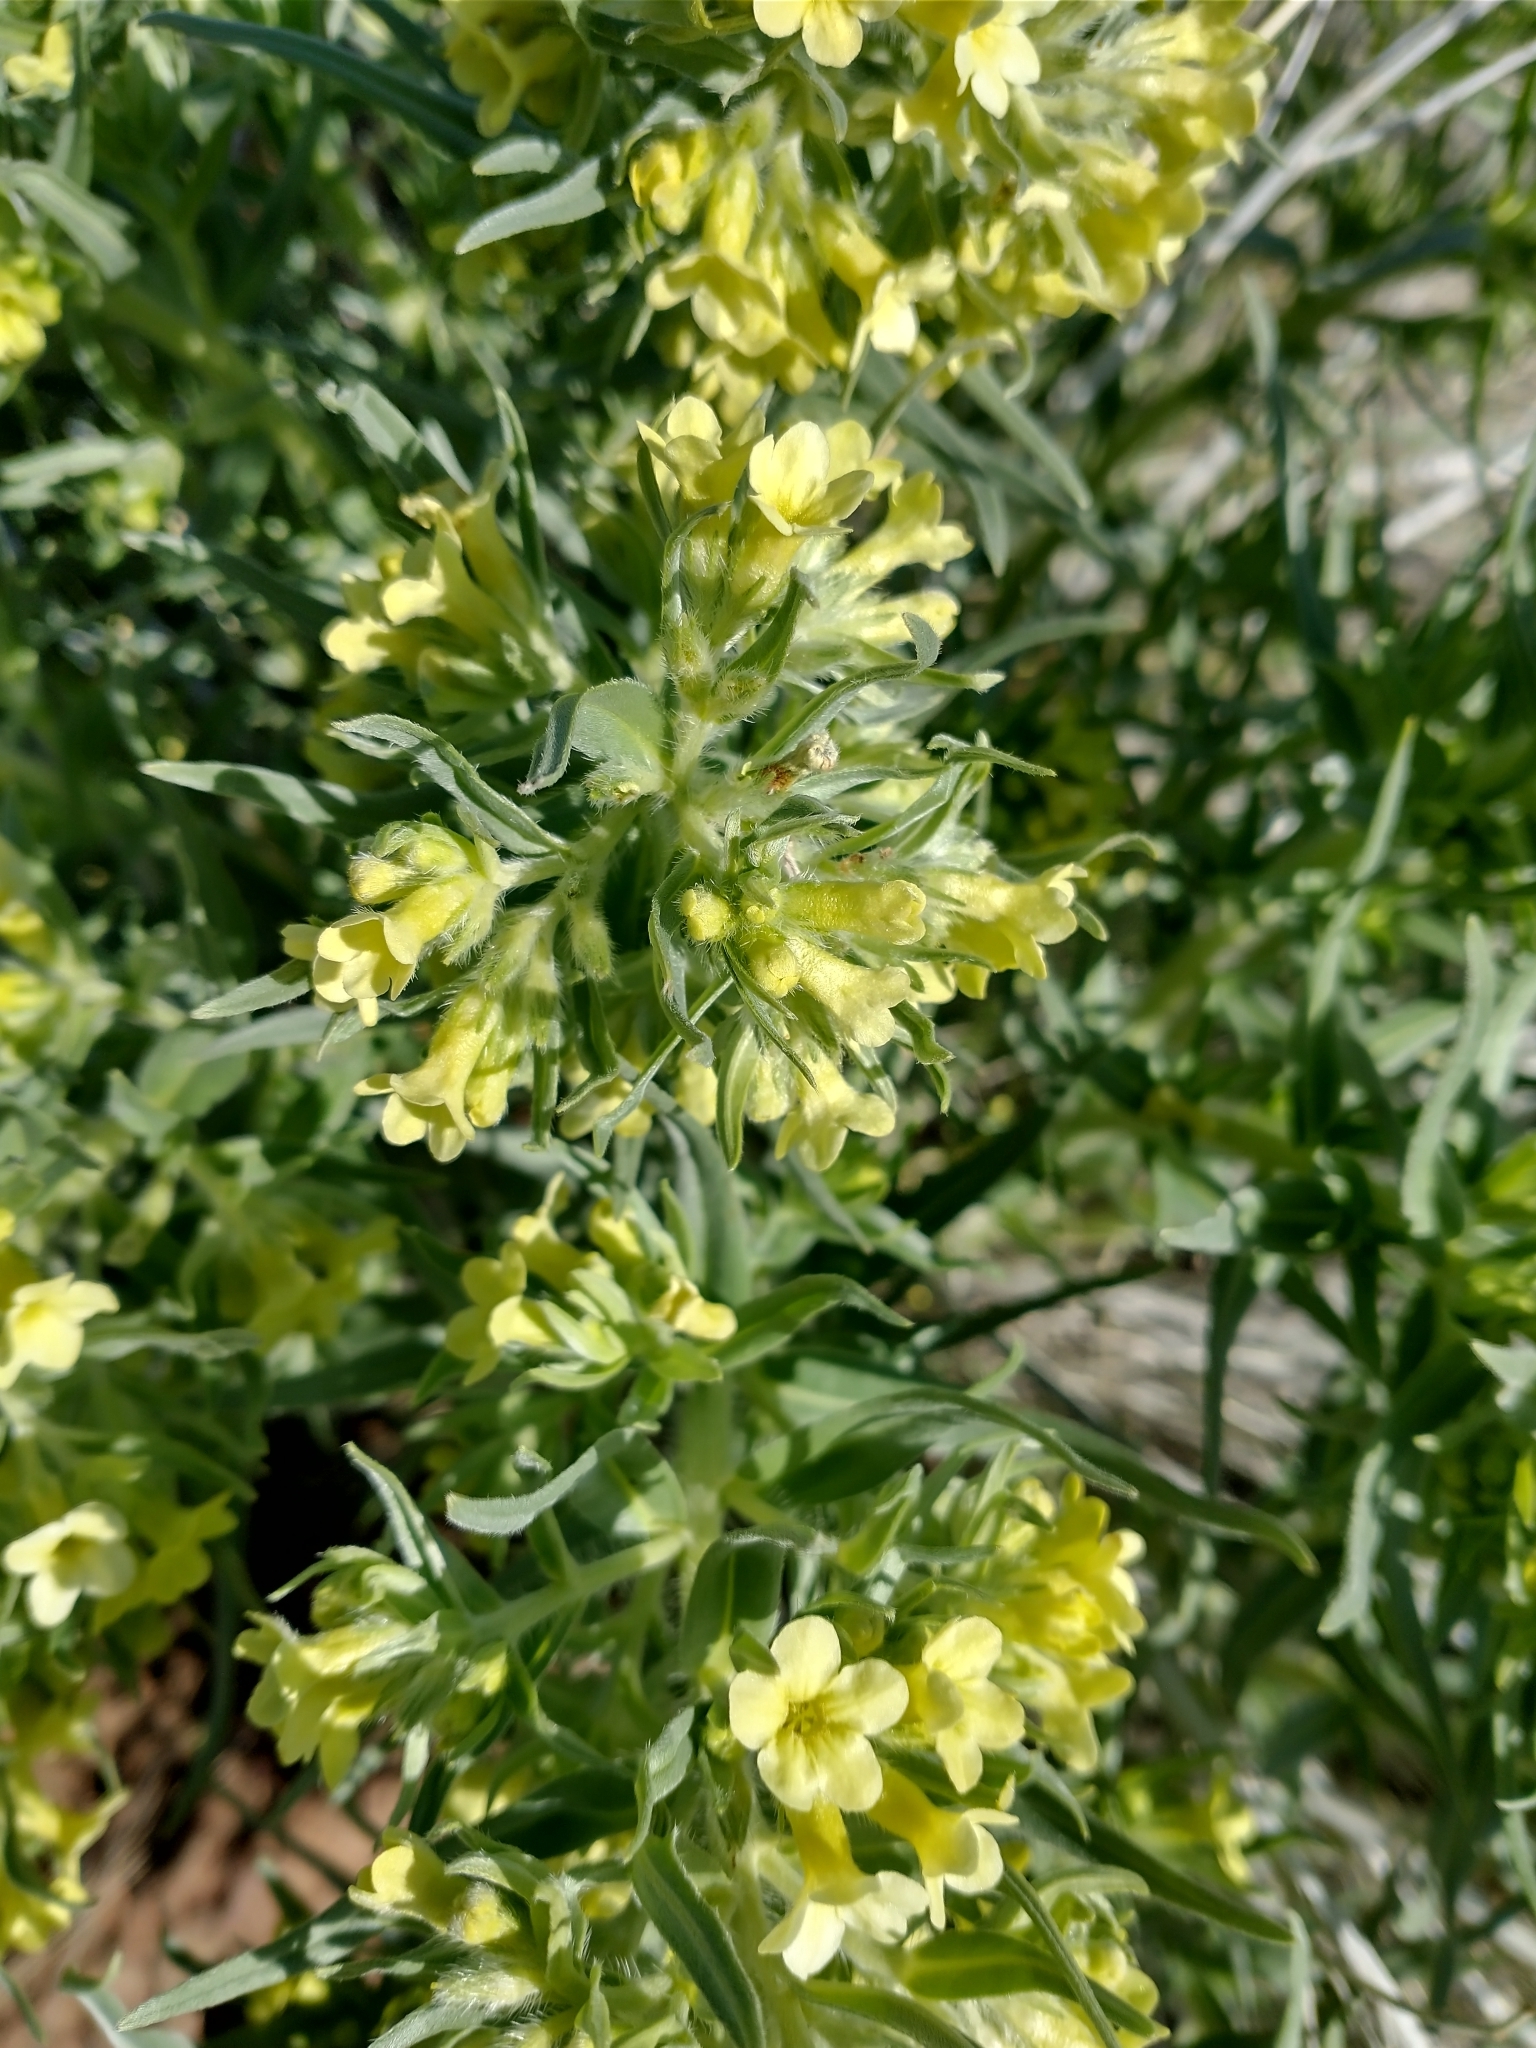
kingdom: Plantae
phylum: Tracheophyta
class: Magnoliopsida
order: Boraginales
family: Boraginaceae
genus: Lithospermum
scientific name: Lithospermum ruderale
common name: Western gromwell
